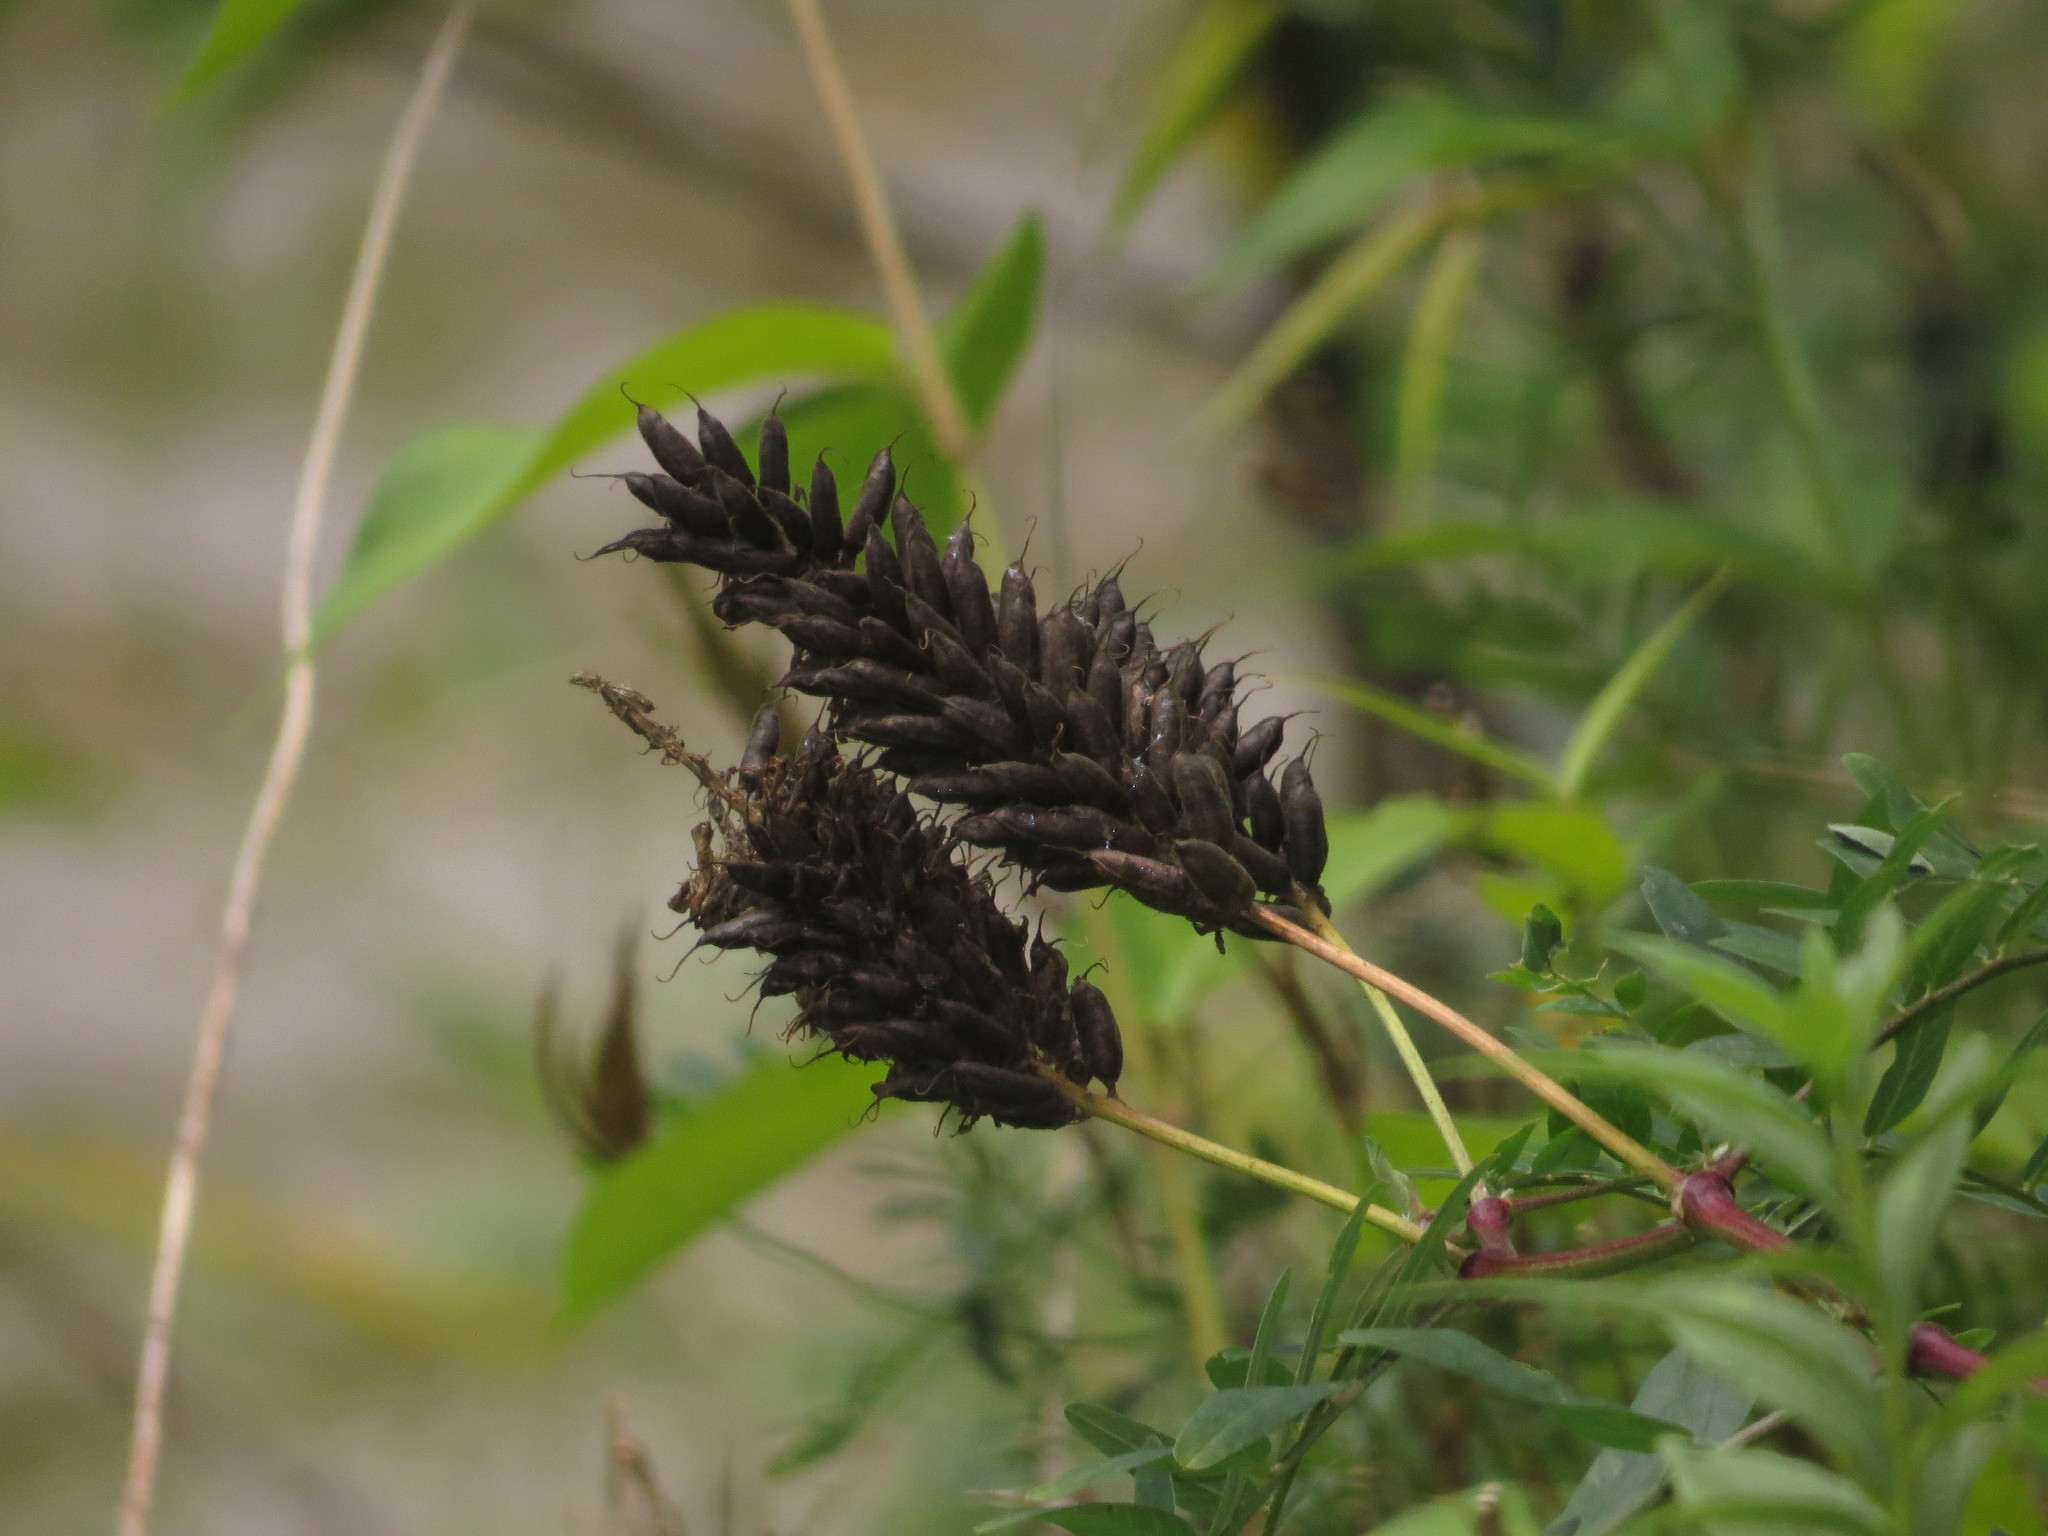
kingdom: Plantae
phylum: Tracheophyta
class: Magnoliopsida
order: Fabales
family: Fabaceae
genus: Astragalus
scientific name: Astragalus canadensis
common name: Canada milk-vetch
